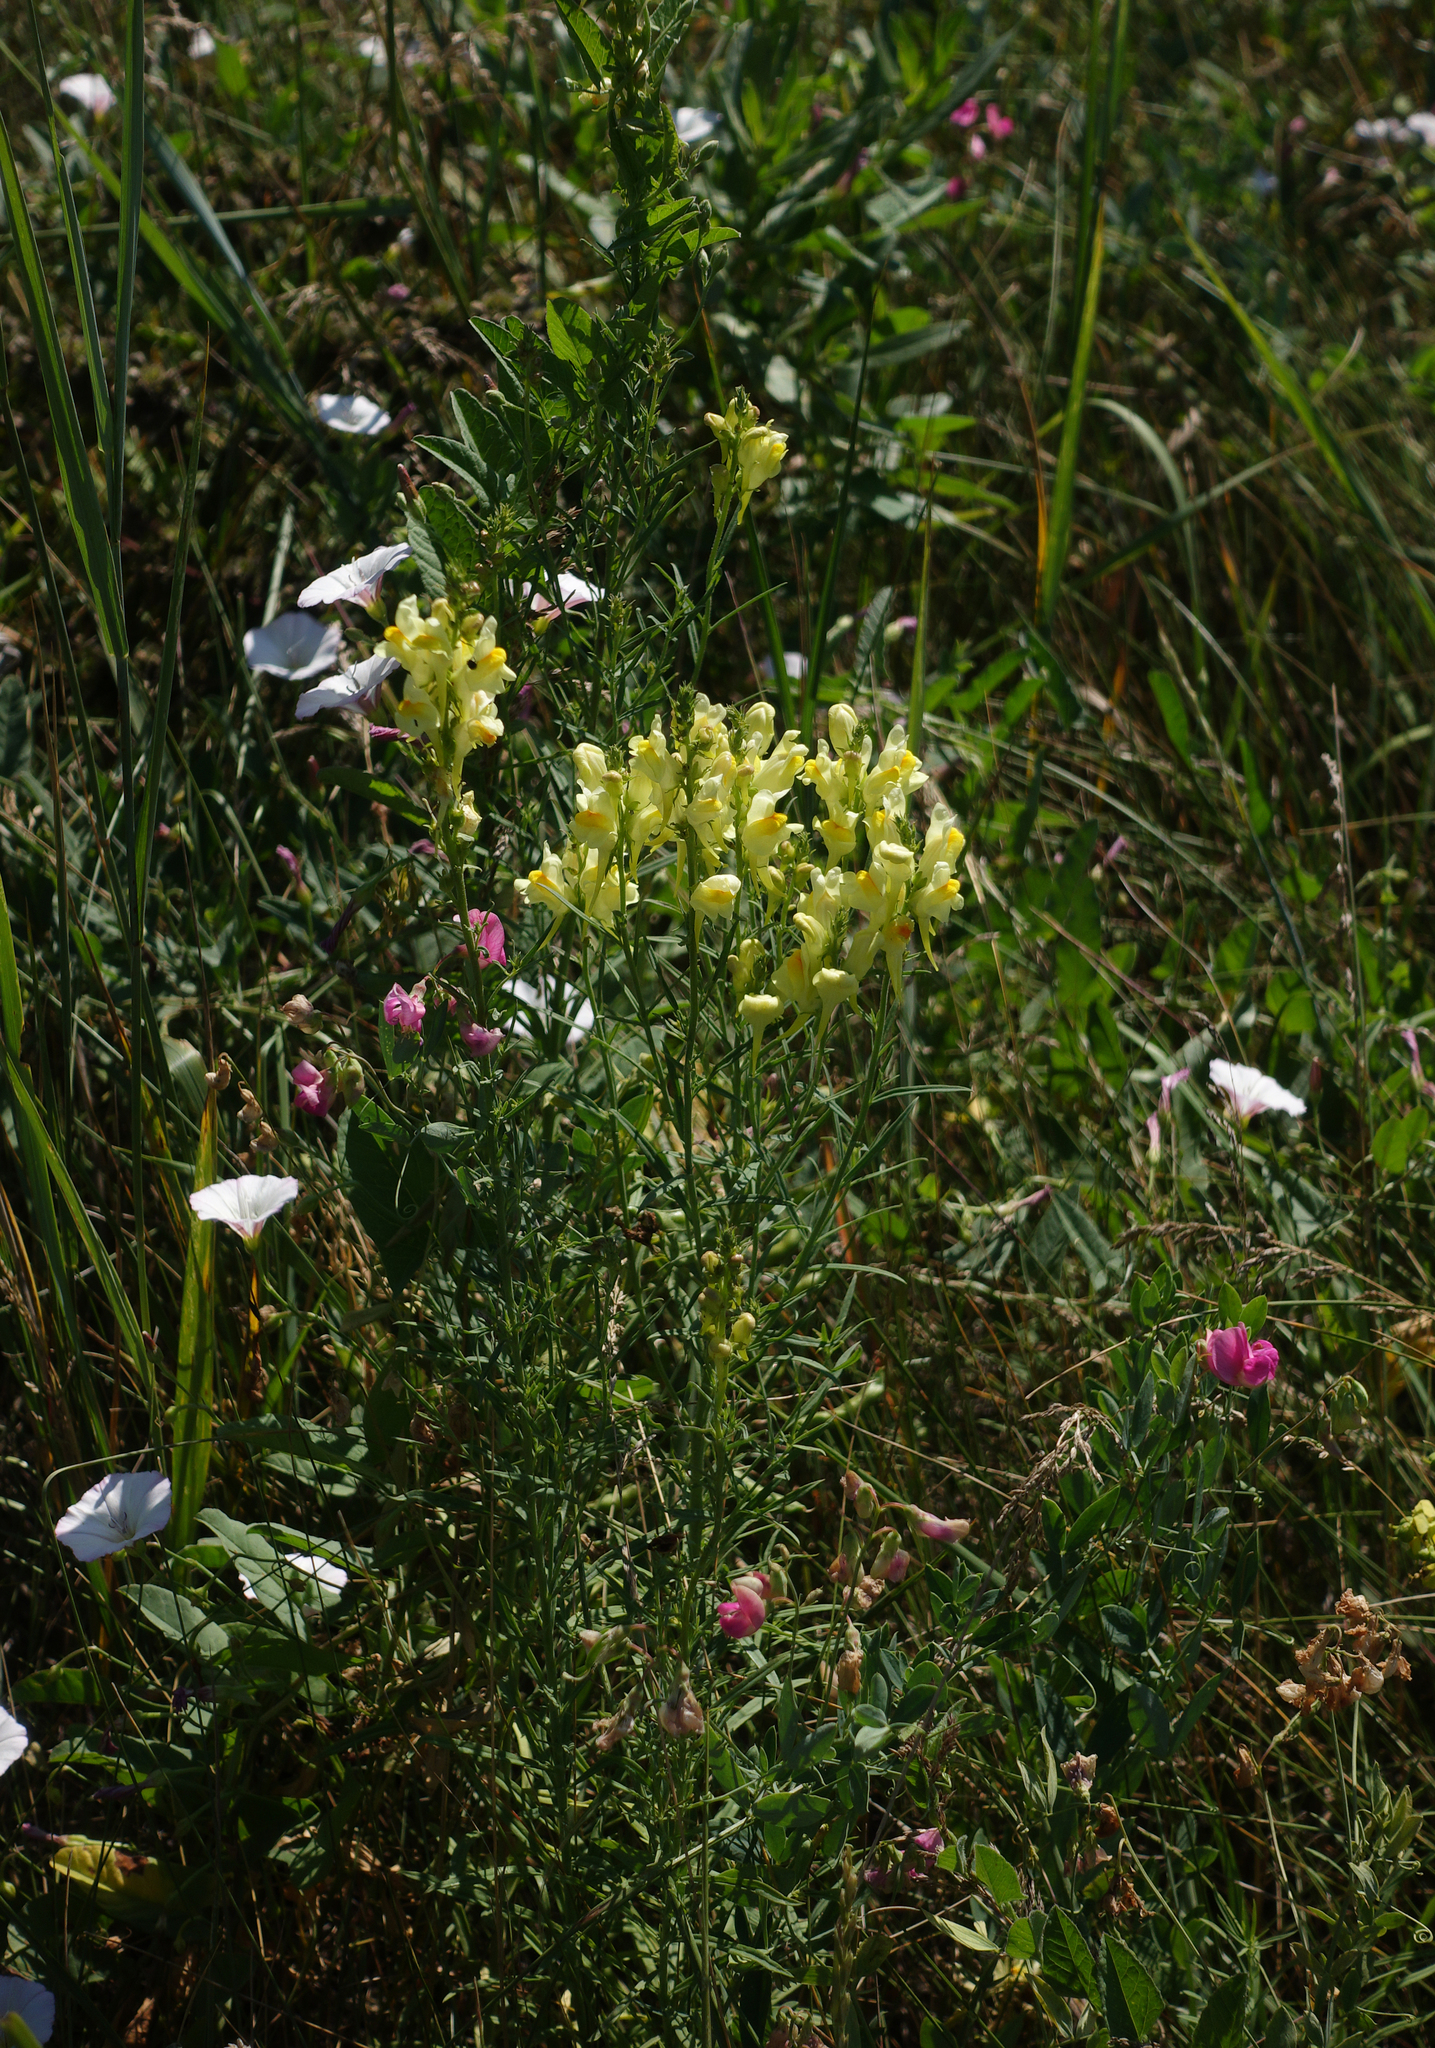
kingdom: Plantae
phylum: Tracheophyta
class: Magnoliopsida
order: Lamiales
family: Plantaginaceae
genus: Linaria
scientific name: Linaria vulgaris
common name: Butter and eggs
